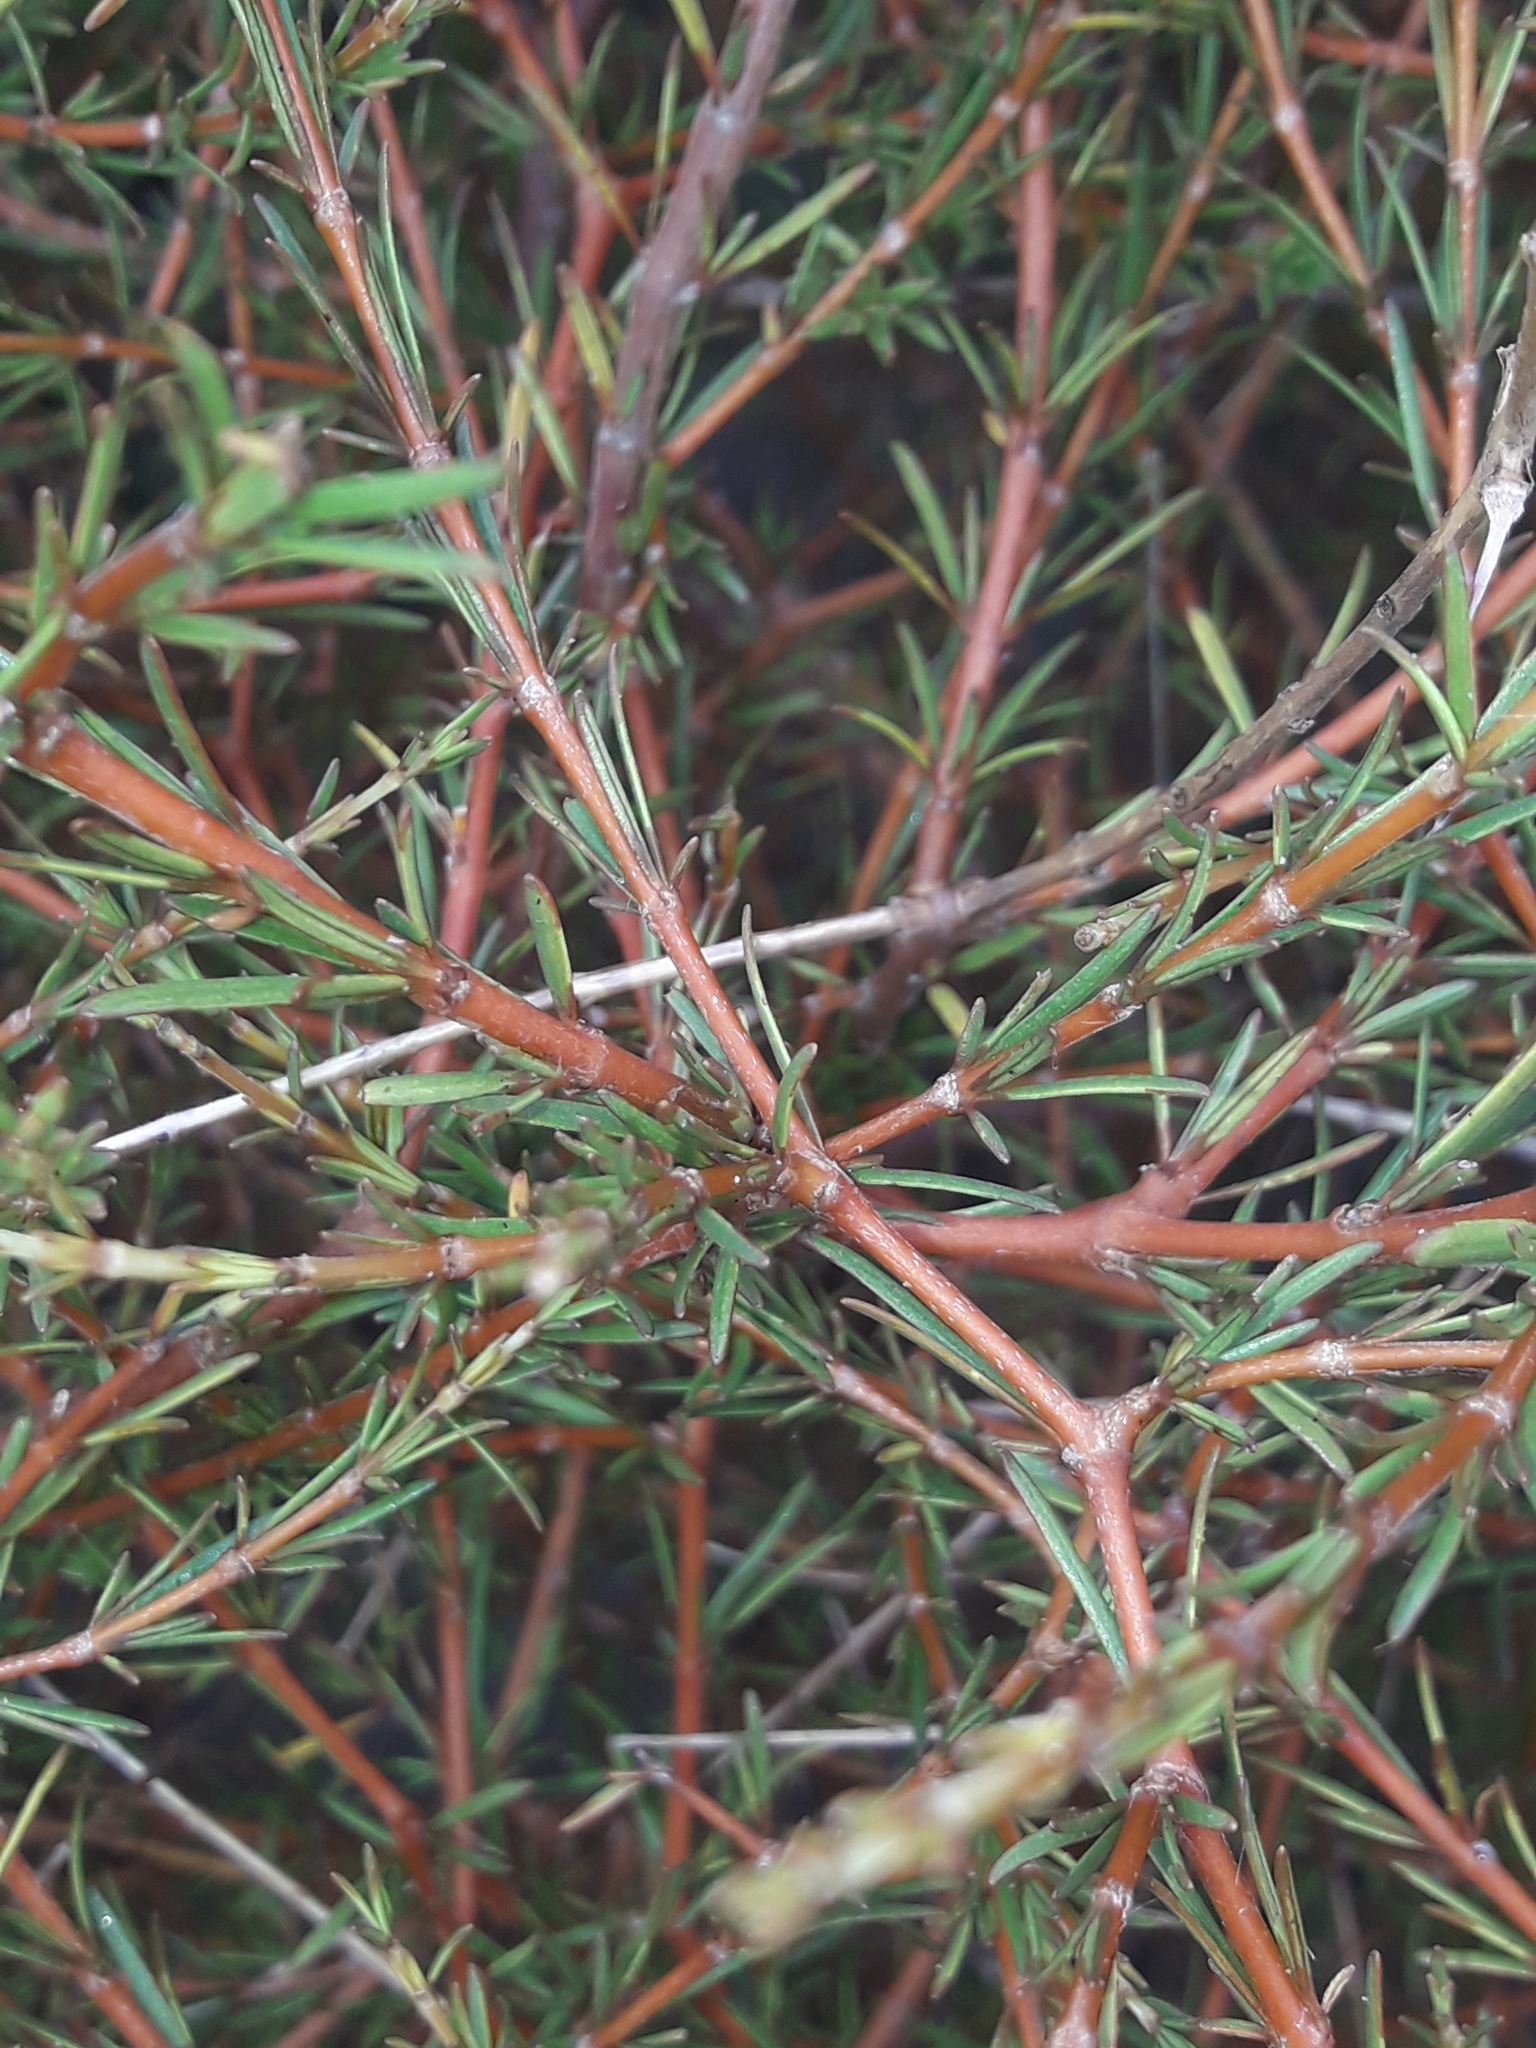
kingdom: Plantae
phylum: Tracheophyta
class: Magnoliopsida
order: Gentianales
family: Rubiaceae
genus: Coprosma
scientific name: Coprosma acerosa
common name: Sand coprosma
